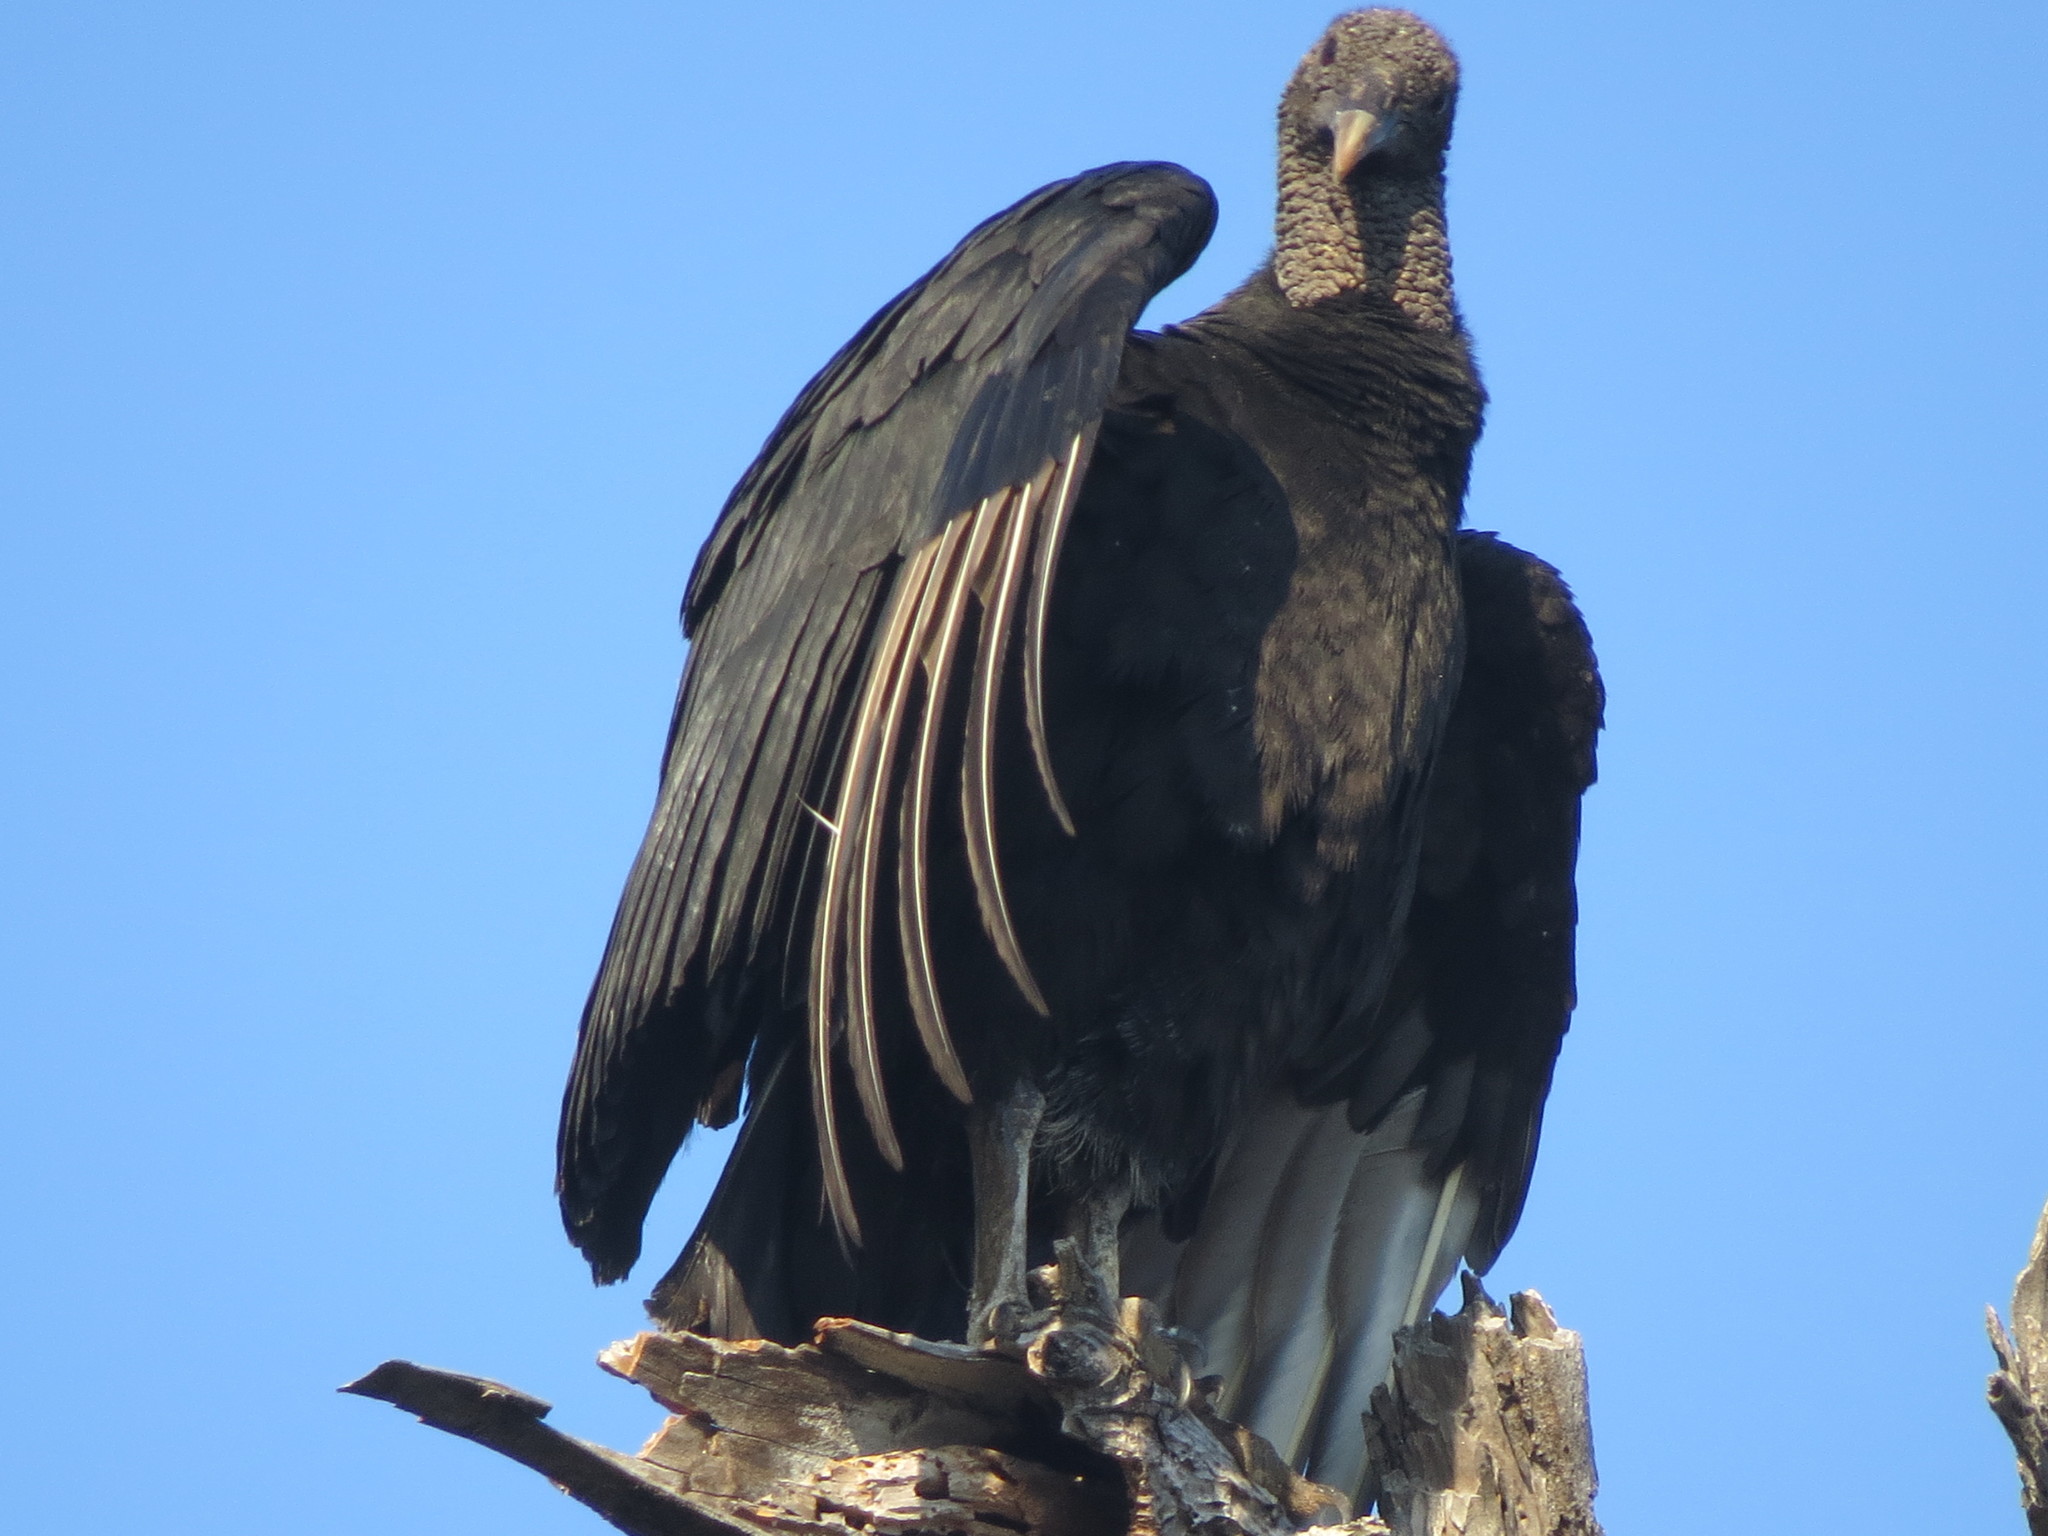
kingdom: Animalia
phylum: Chordata
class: Aves
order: Accipitriformes
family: Cathartidae
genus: Coragyps
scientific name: Coragyps atratus
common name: Black vulture
